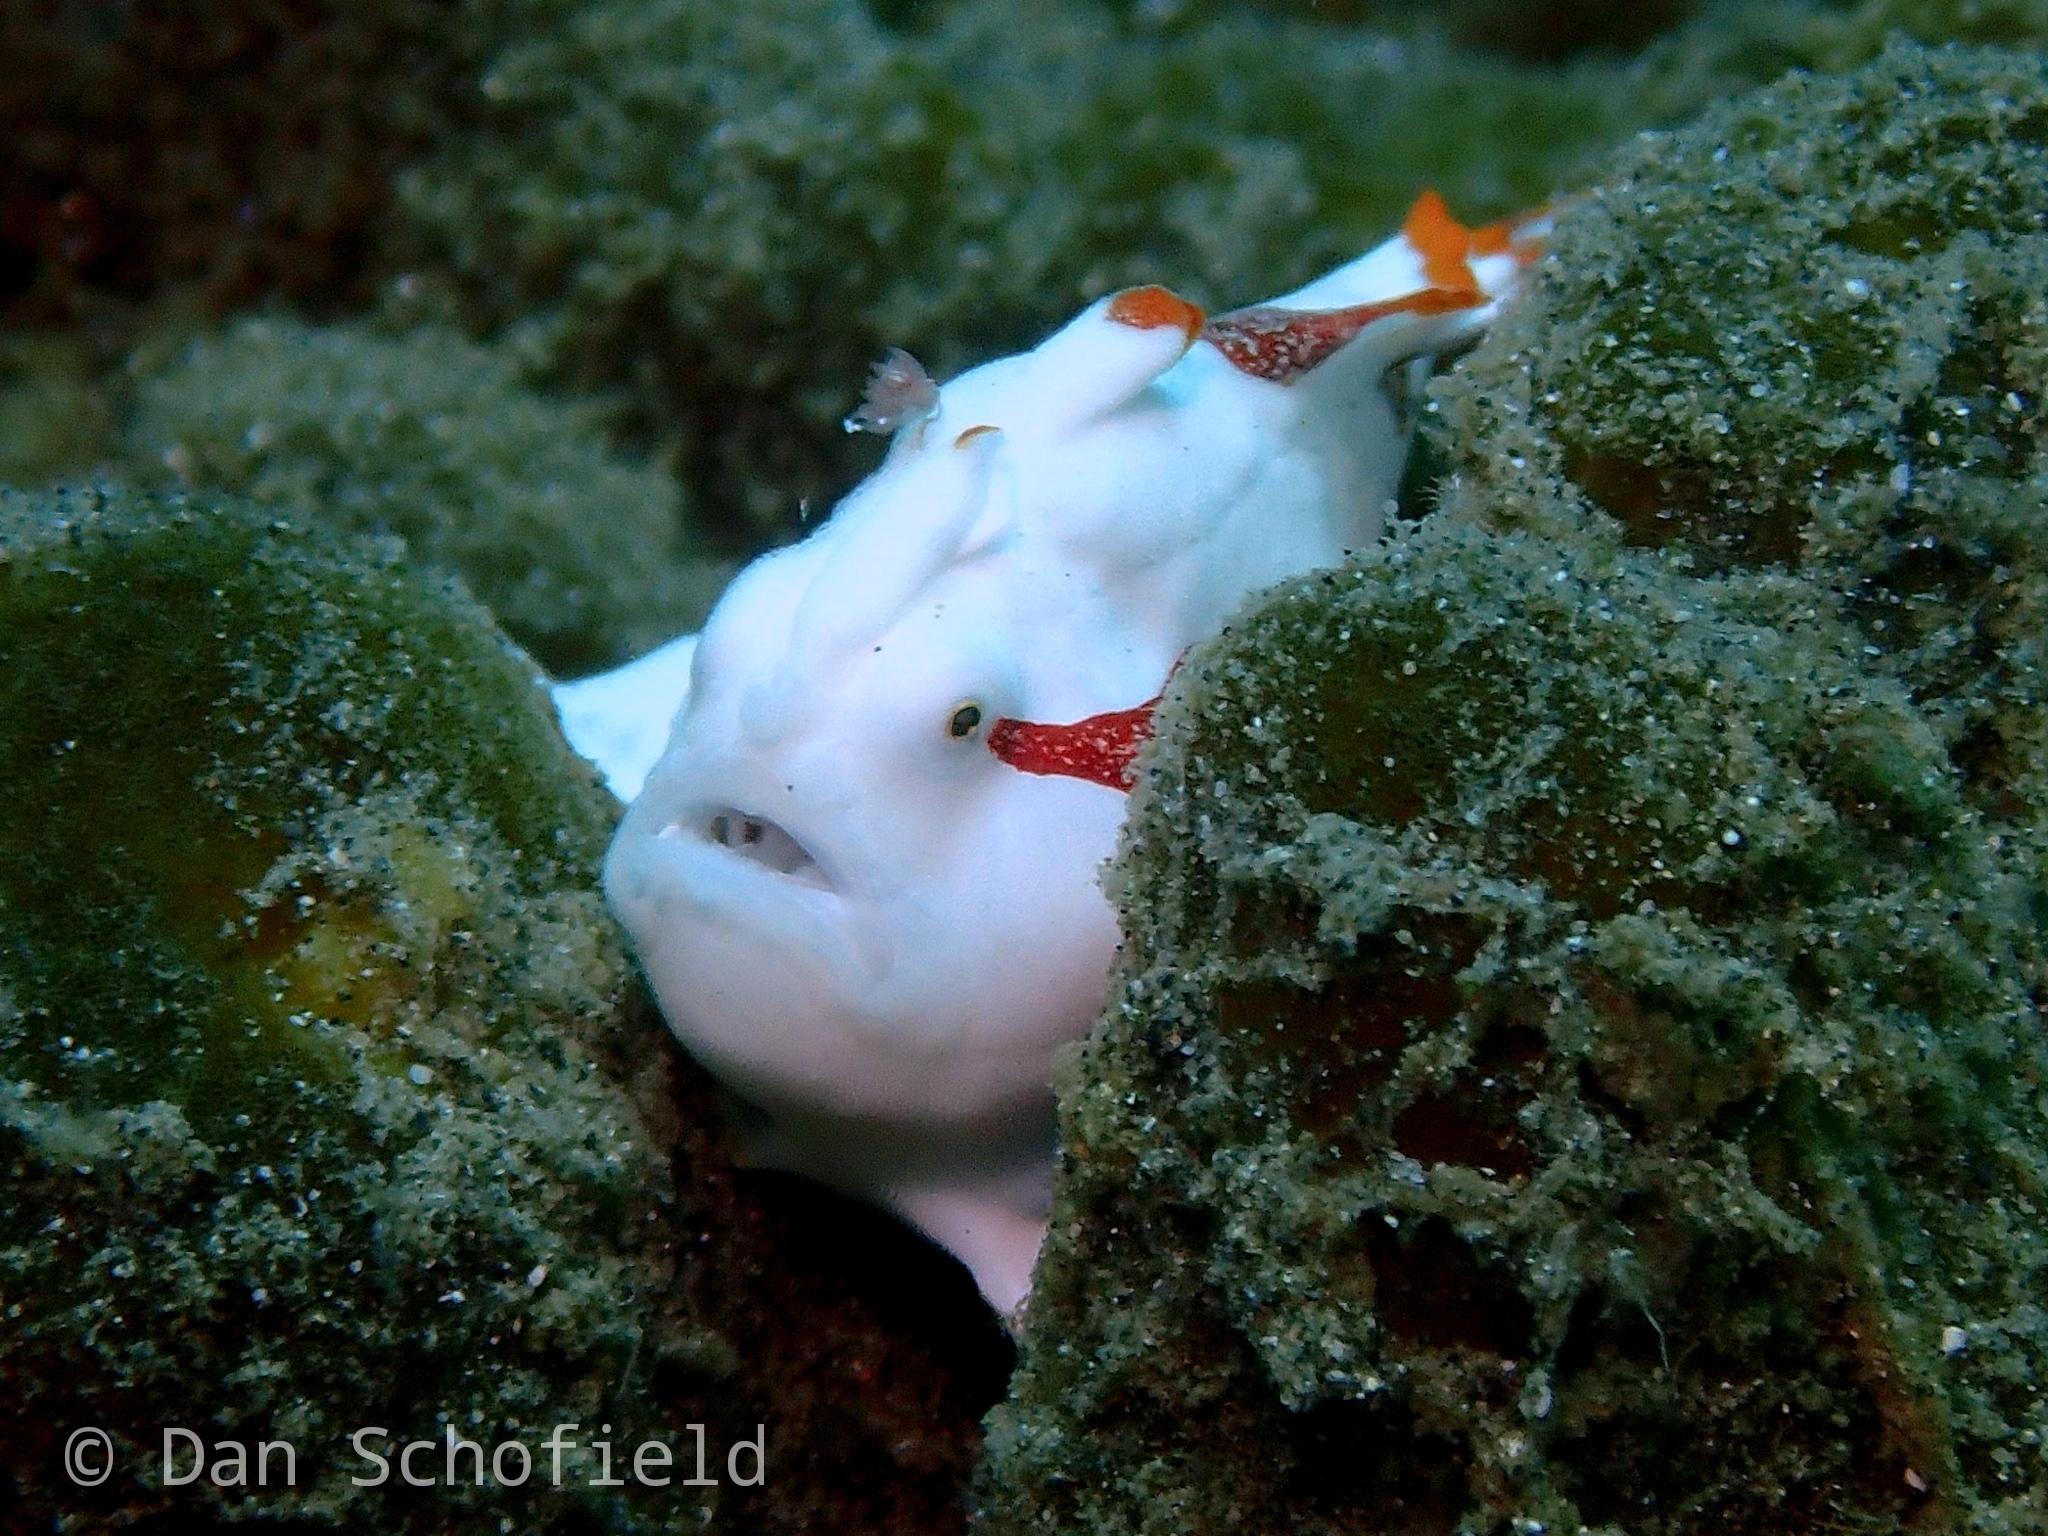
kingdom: Animalia
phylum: Chordata
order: Lophiiformes
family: Antennariidae
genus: Antennarius
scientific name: Antennarius maculatus
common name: Warty frogfish
